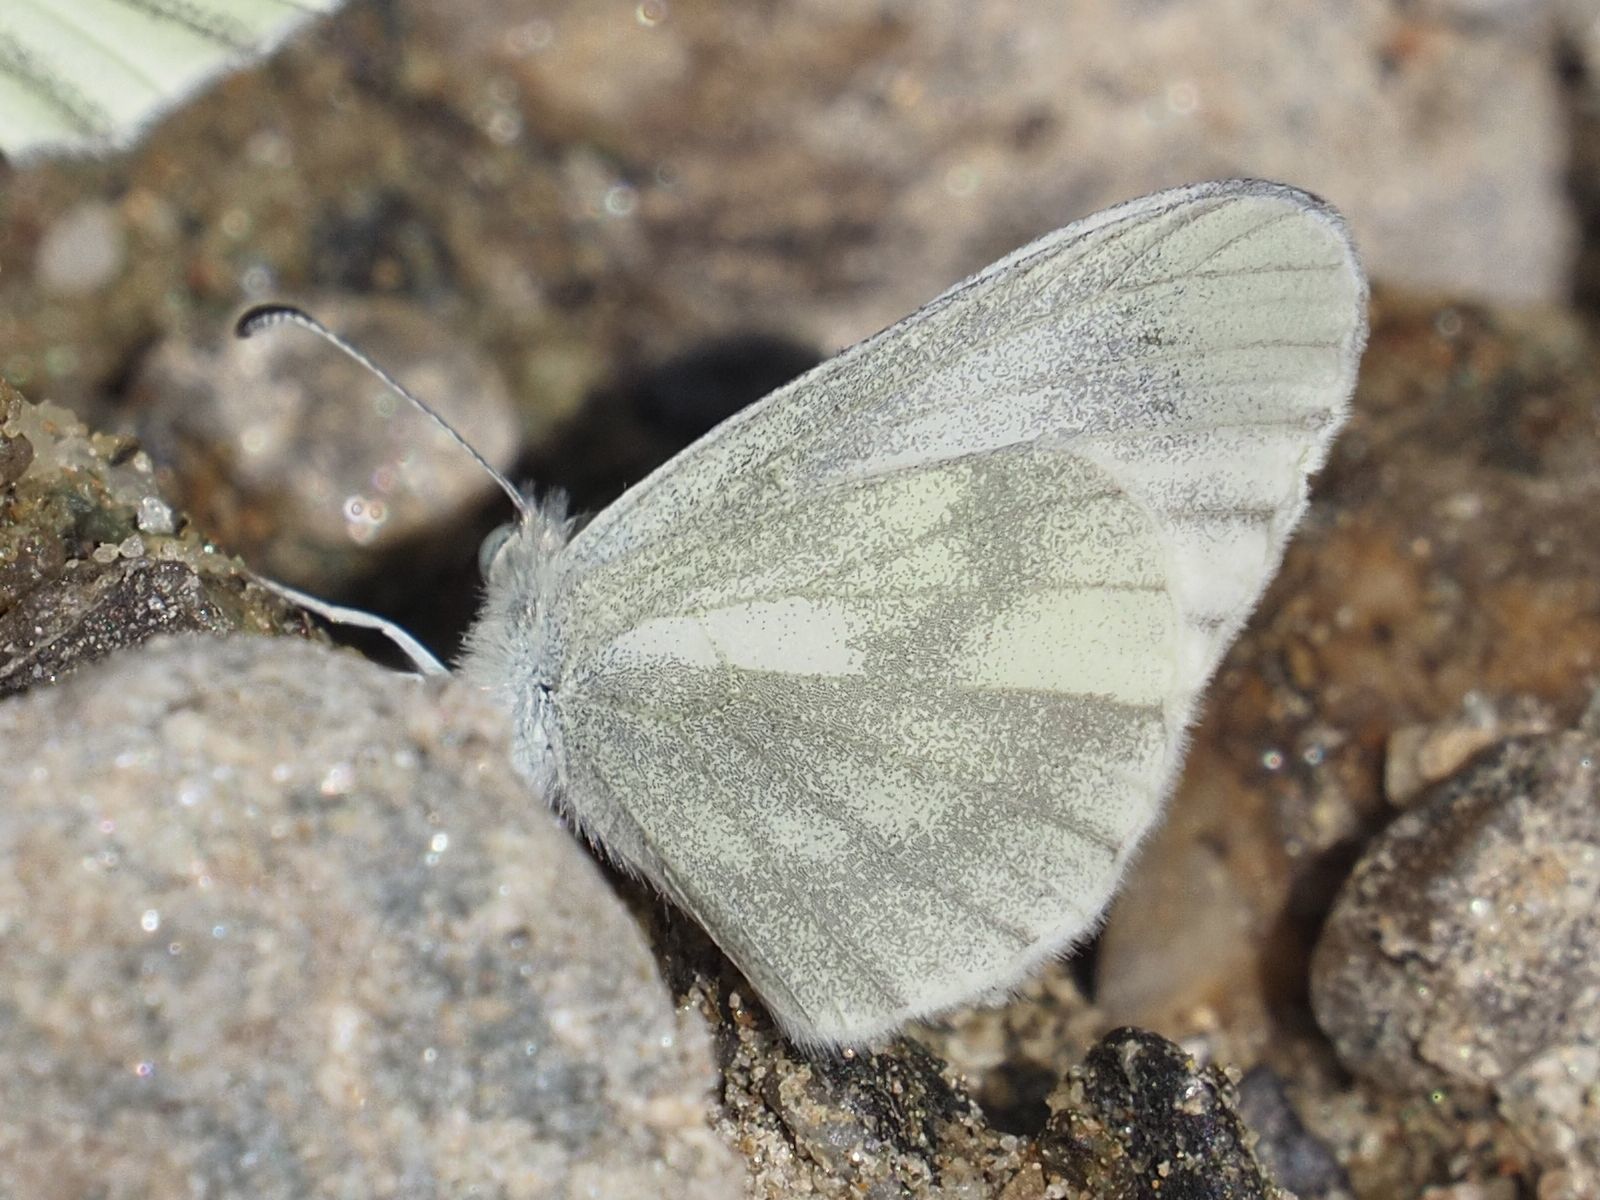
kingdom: Animalia
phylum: Arthropoda
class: Insecta
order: Lepidoptera
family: Pieridae
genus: Leptidea
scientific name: Leptidea
